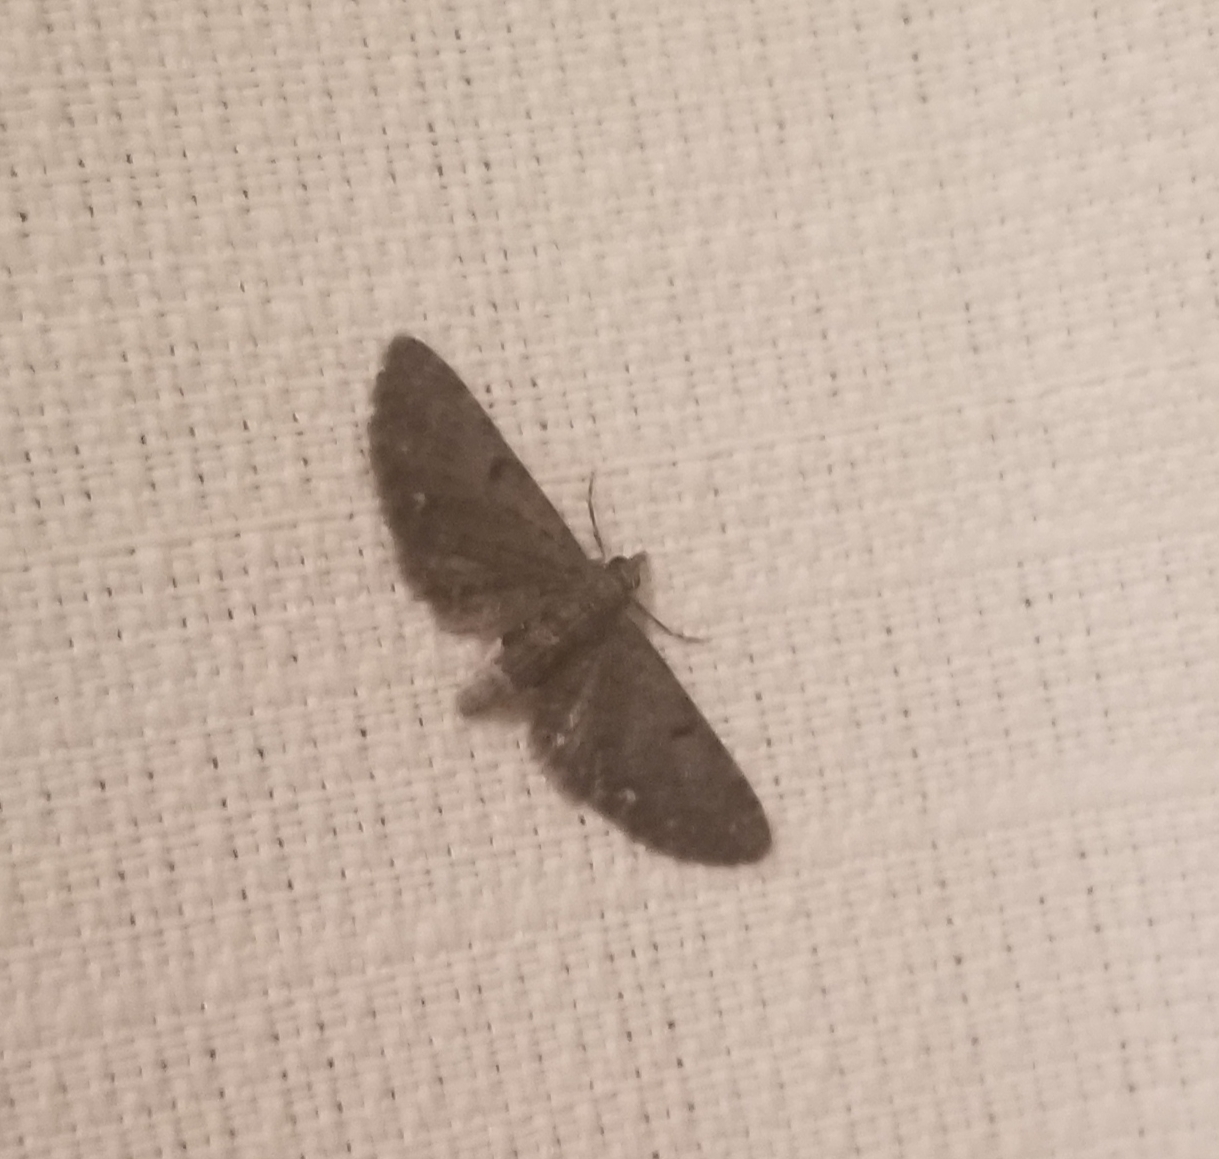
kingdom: Animalia
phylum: Arthropoda
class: Insecta
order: Lepidoptera
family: Geometridae
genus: Eupithecia
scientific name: Eupithecia miserulata
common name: Common eupithecia
